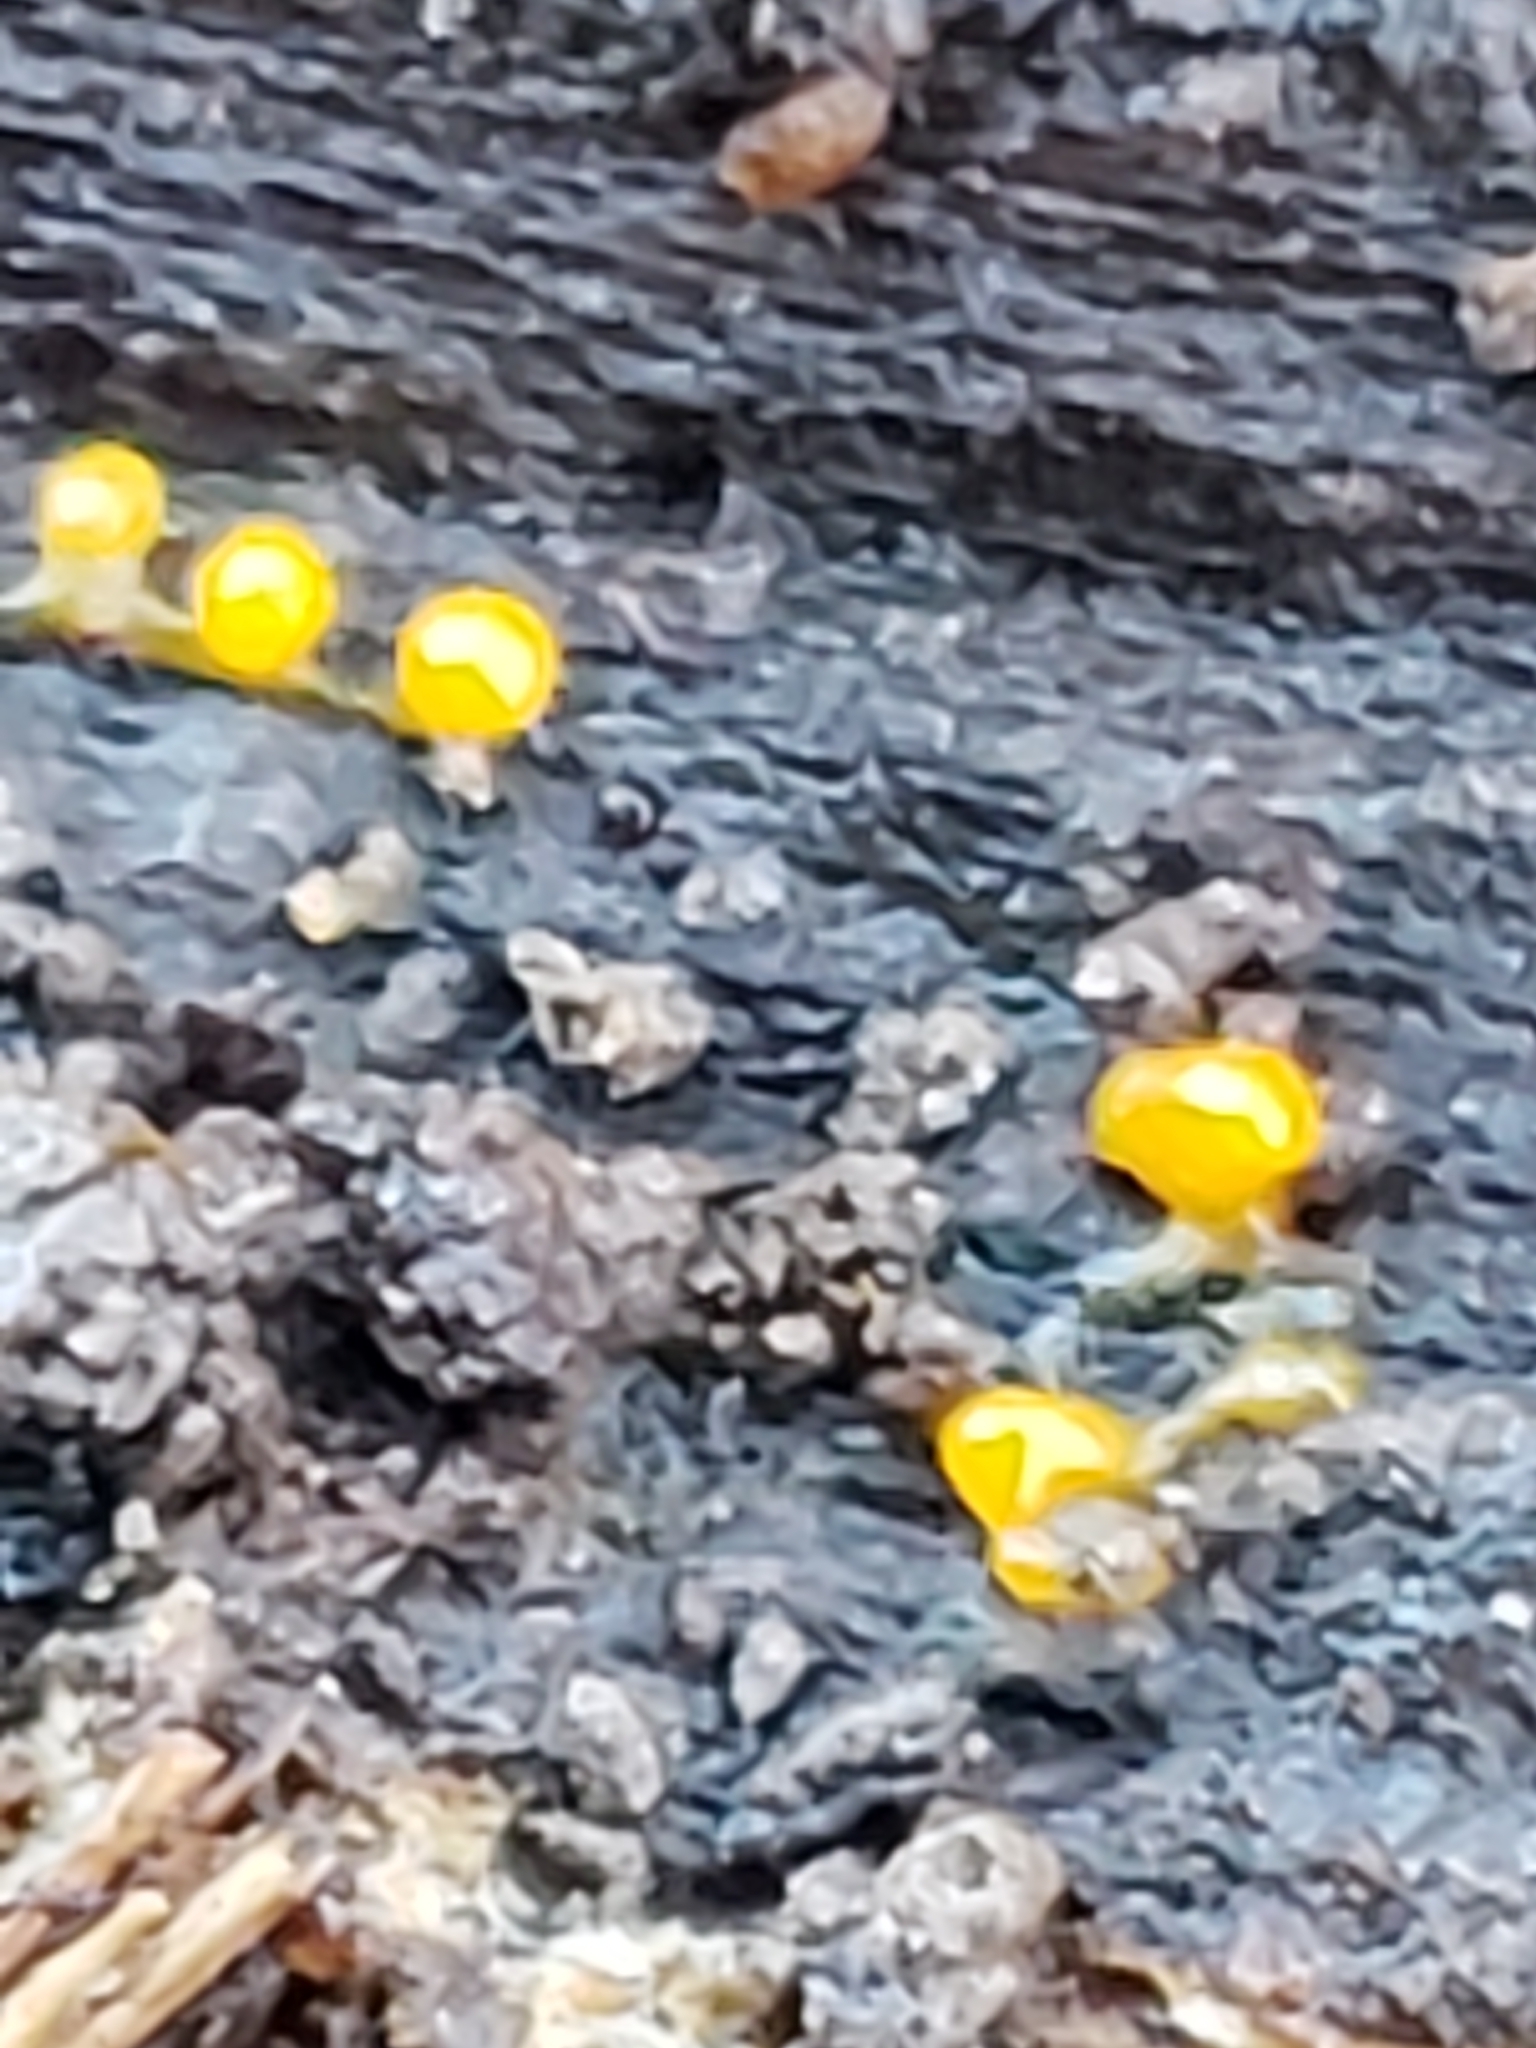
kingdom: Fungi
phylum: Basidiomycota
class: Dacrymycetes
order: Dacrymycetales
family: Dacrymycetaceae
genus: Dacrymyces
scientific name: Dacrymyces stillatus
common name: Common jelly spot
